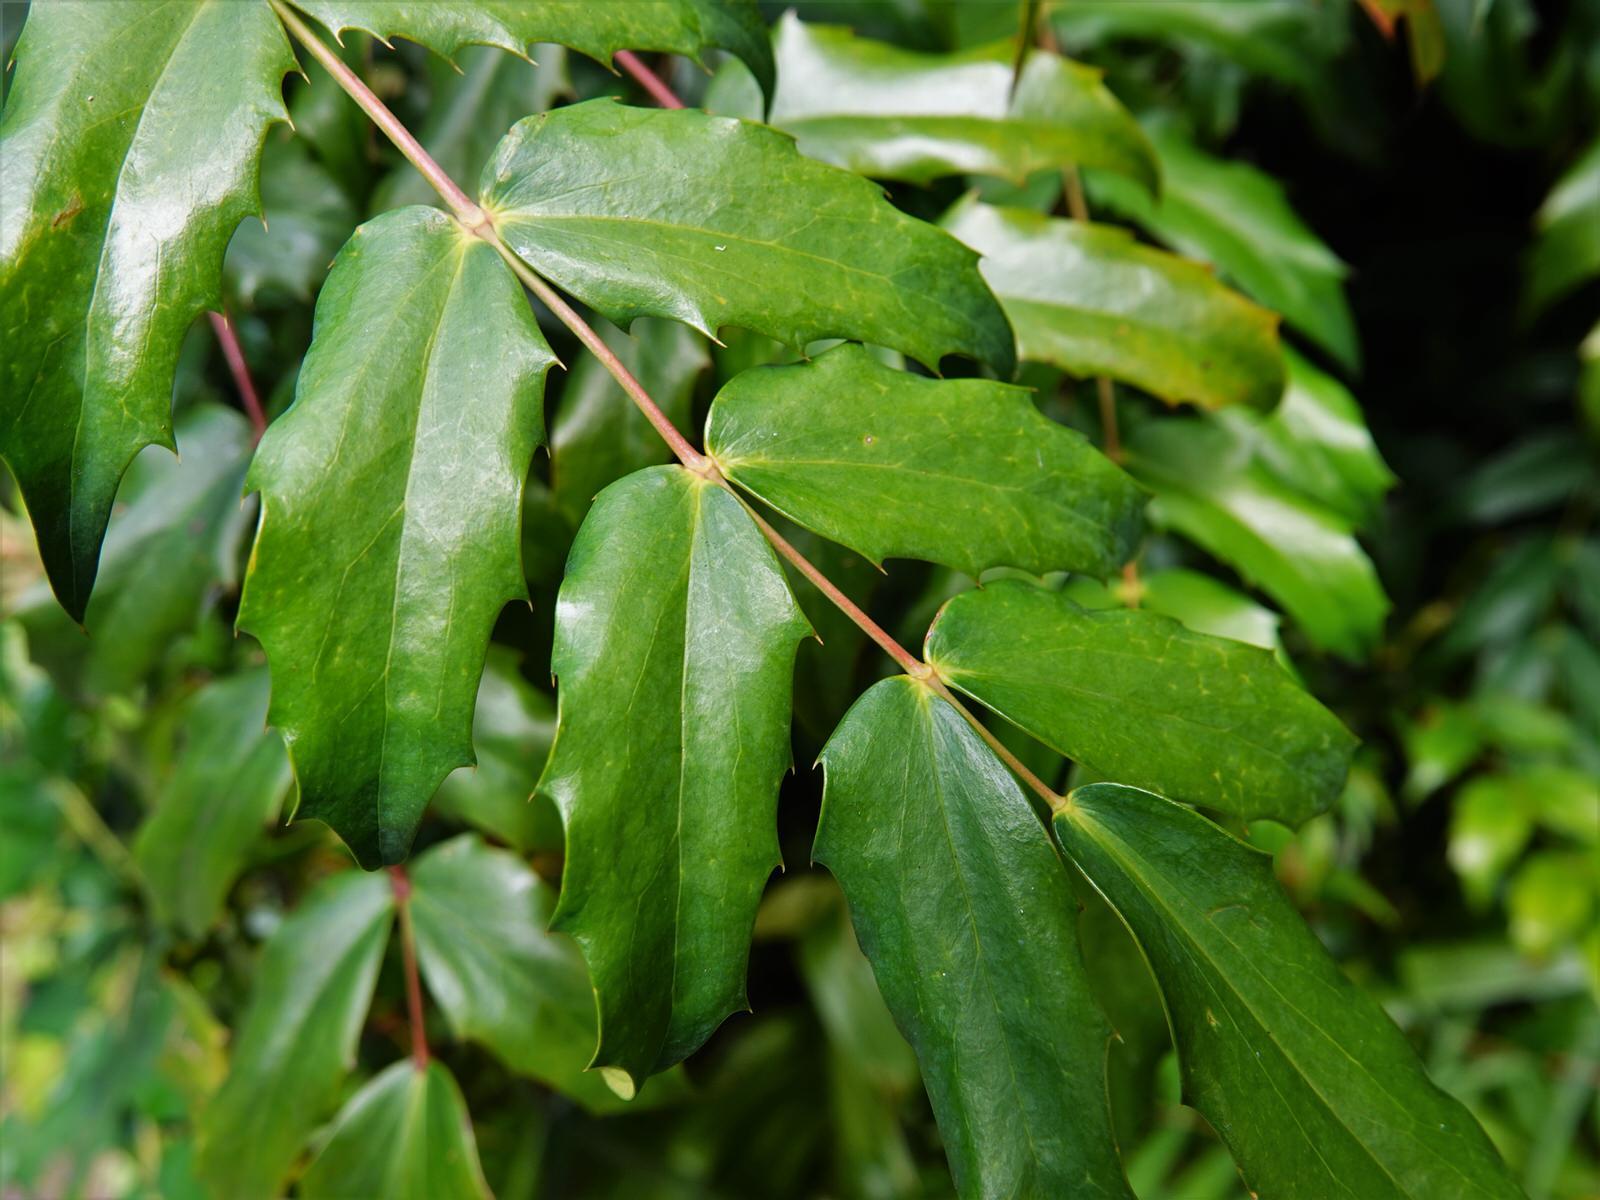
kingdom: Plantae
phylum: Tracheophyta
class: Magnoliopsida
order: Ranunculales
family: Berberidaceae
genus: Berberis
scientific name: Berberis hortensis
